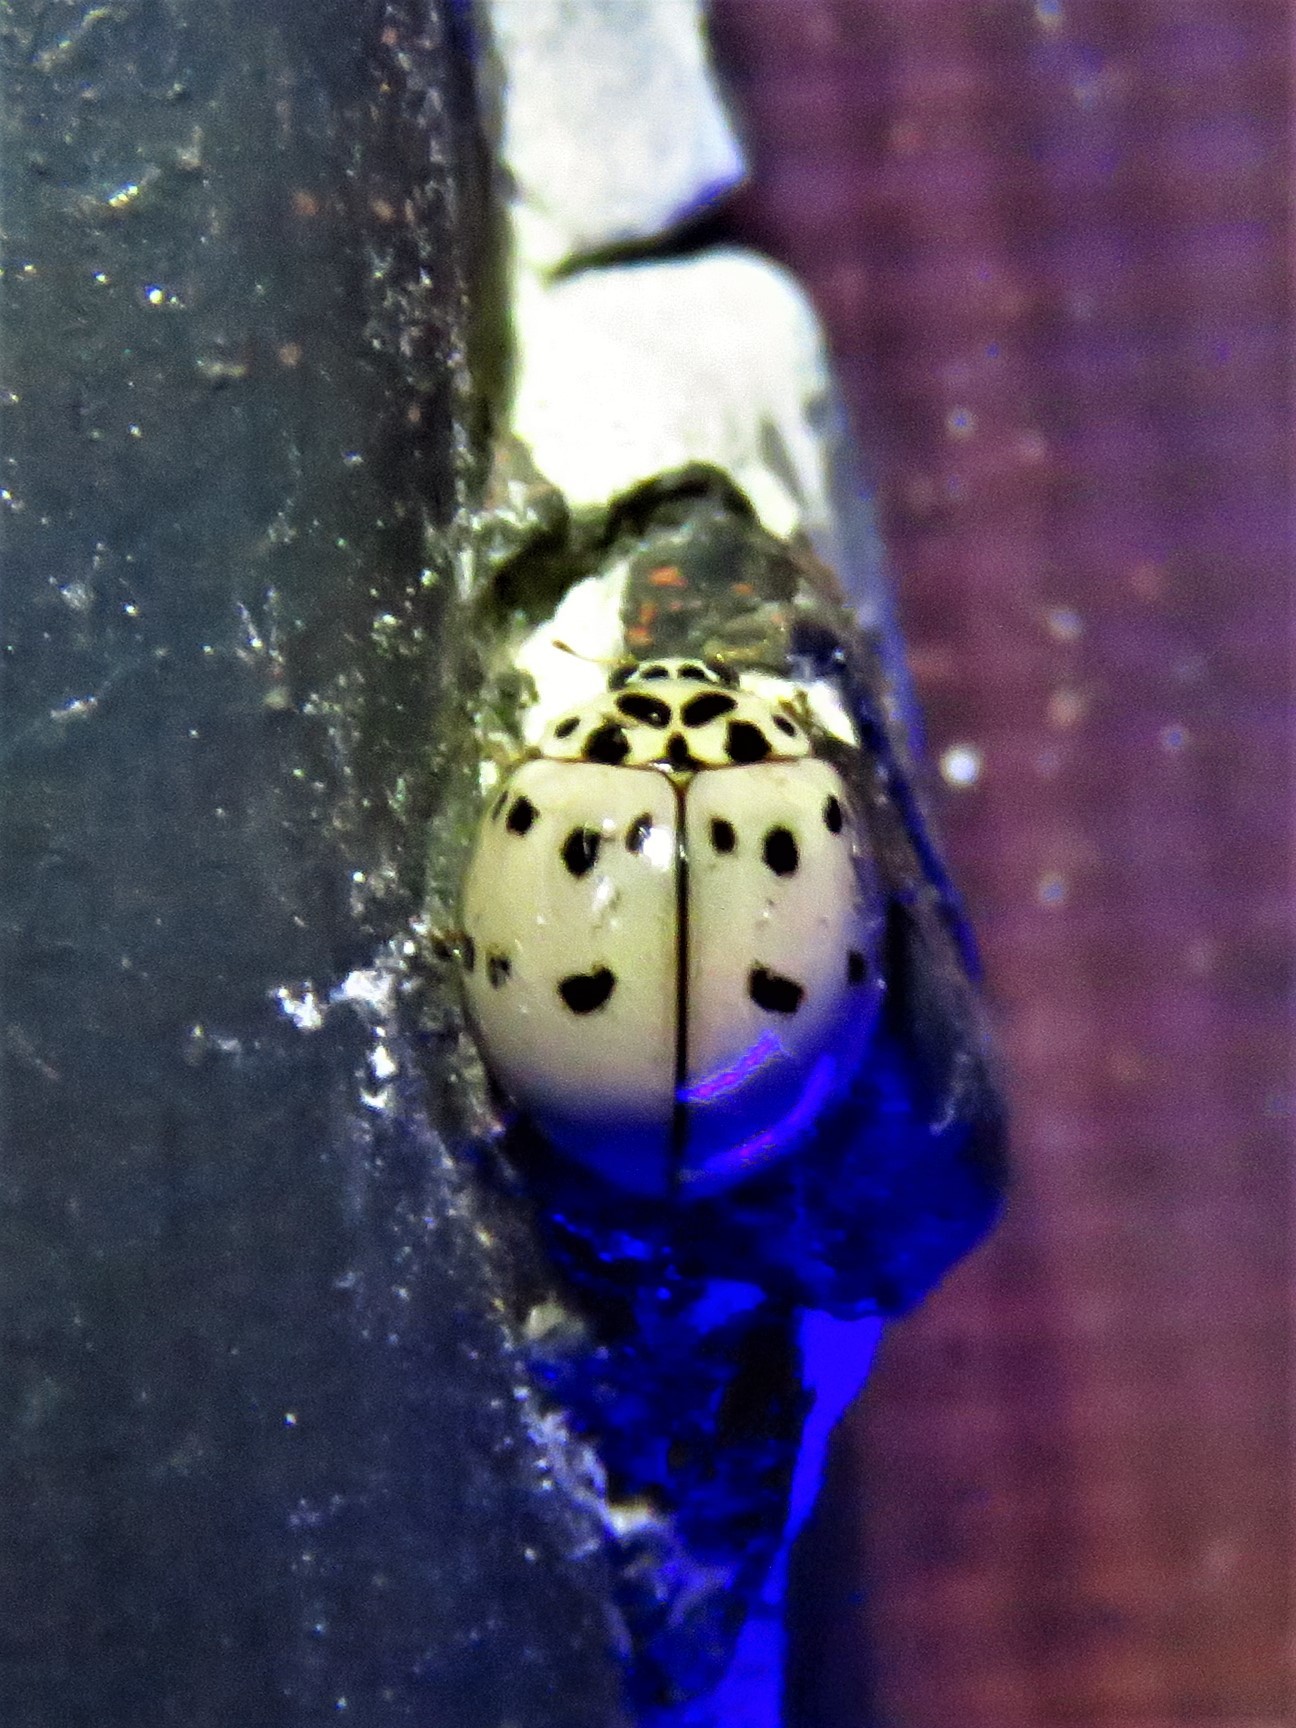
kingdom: Animalia
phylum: Arthropoda
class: Insecta
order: Coleoptera
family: Coccinellidae
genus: Olla
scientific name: Olla v-nigrum
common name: Ashy gray lady beetle
